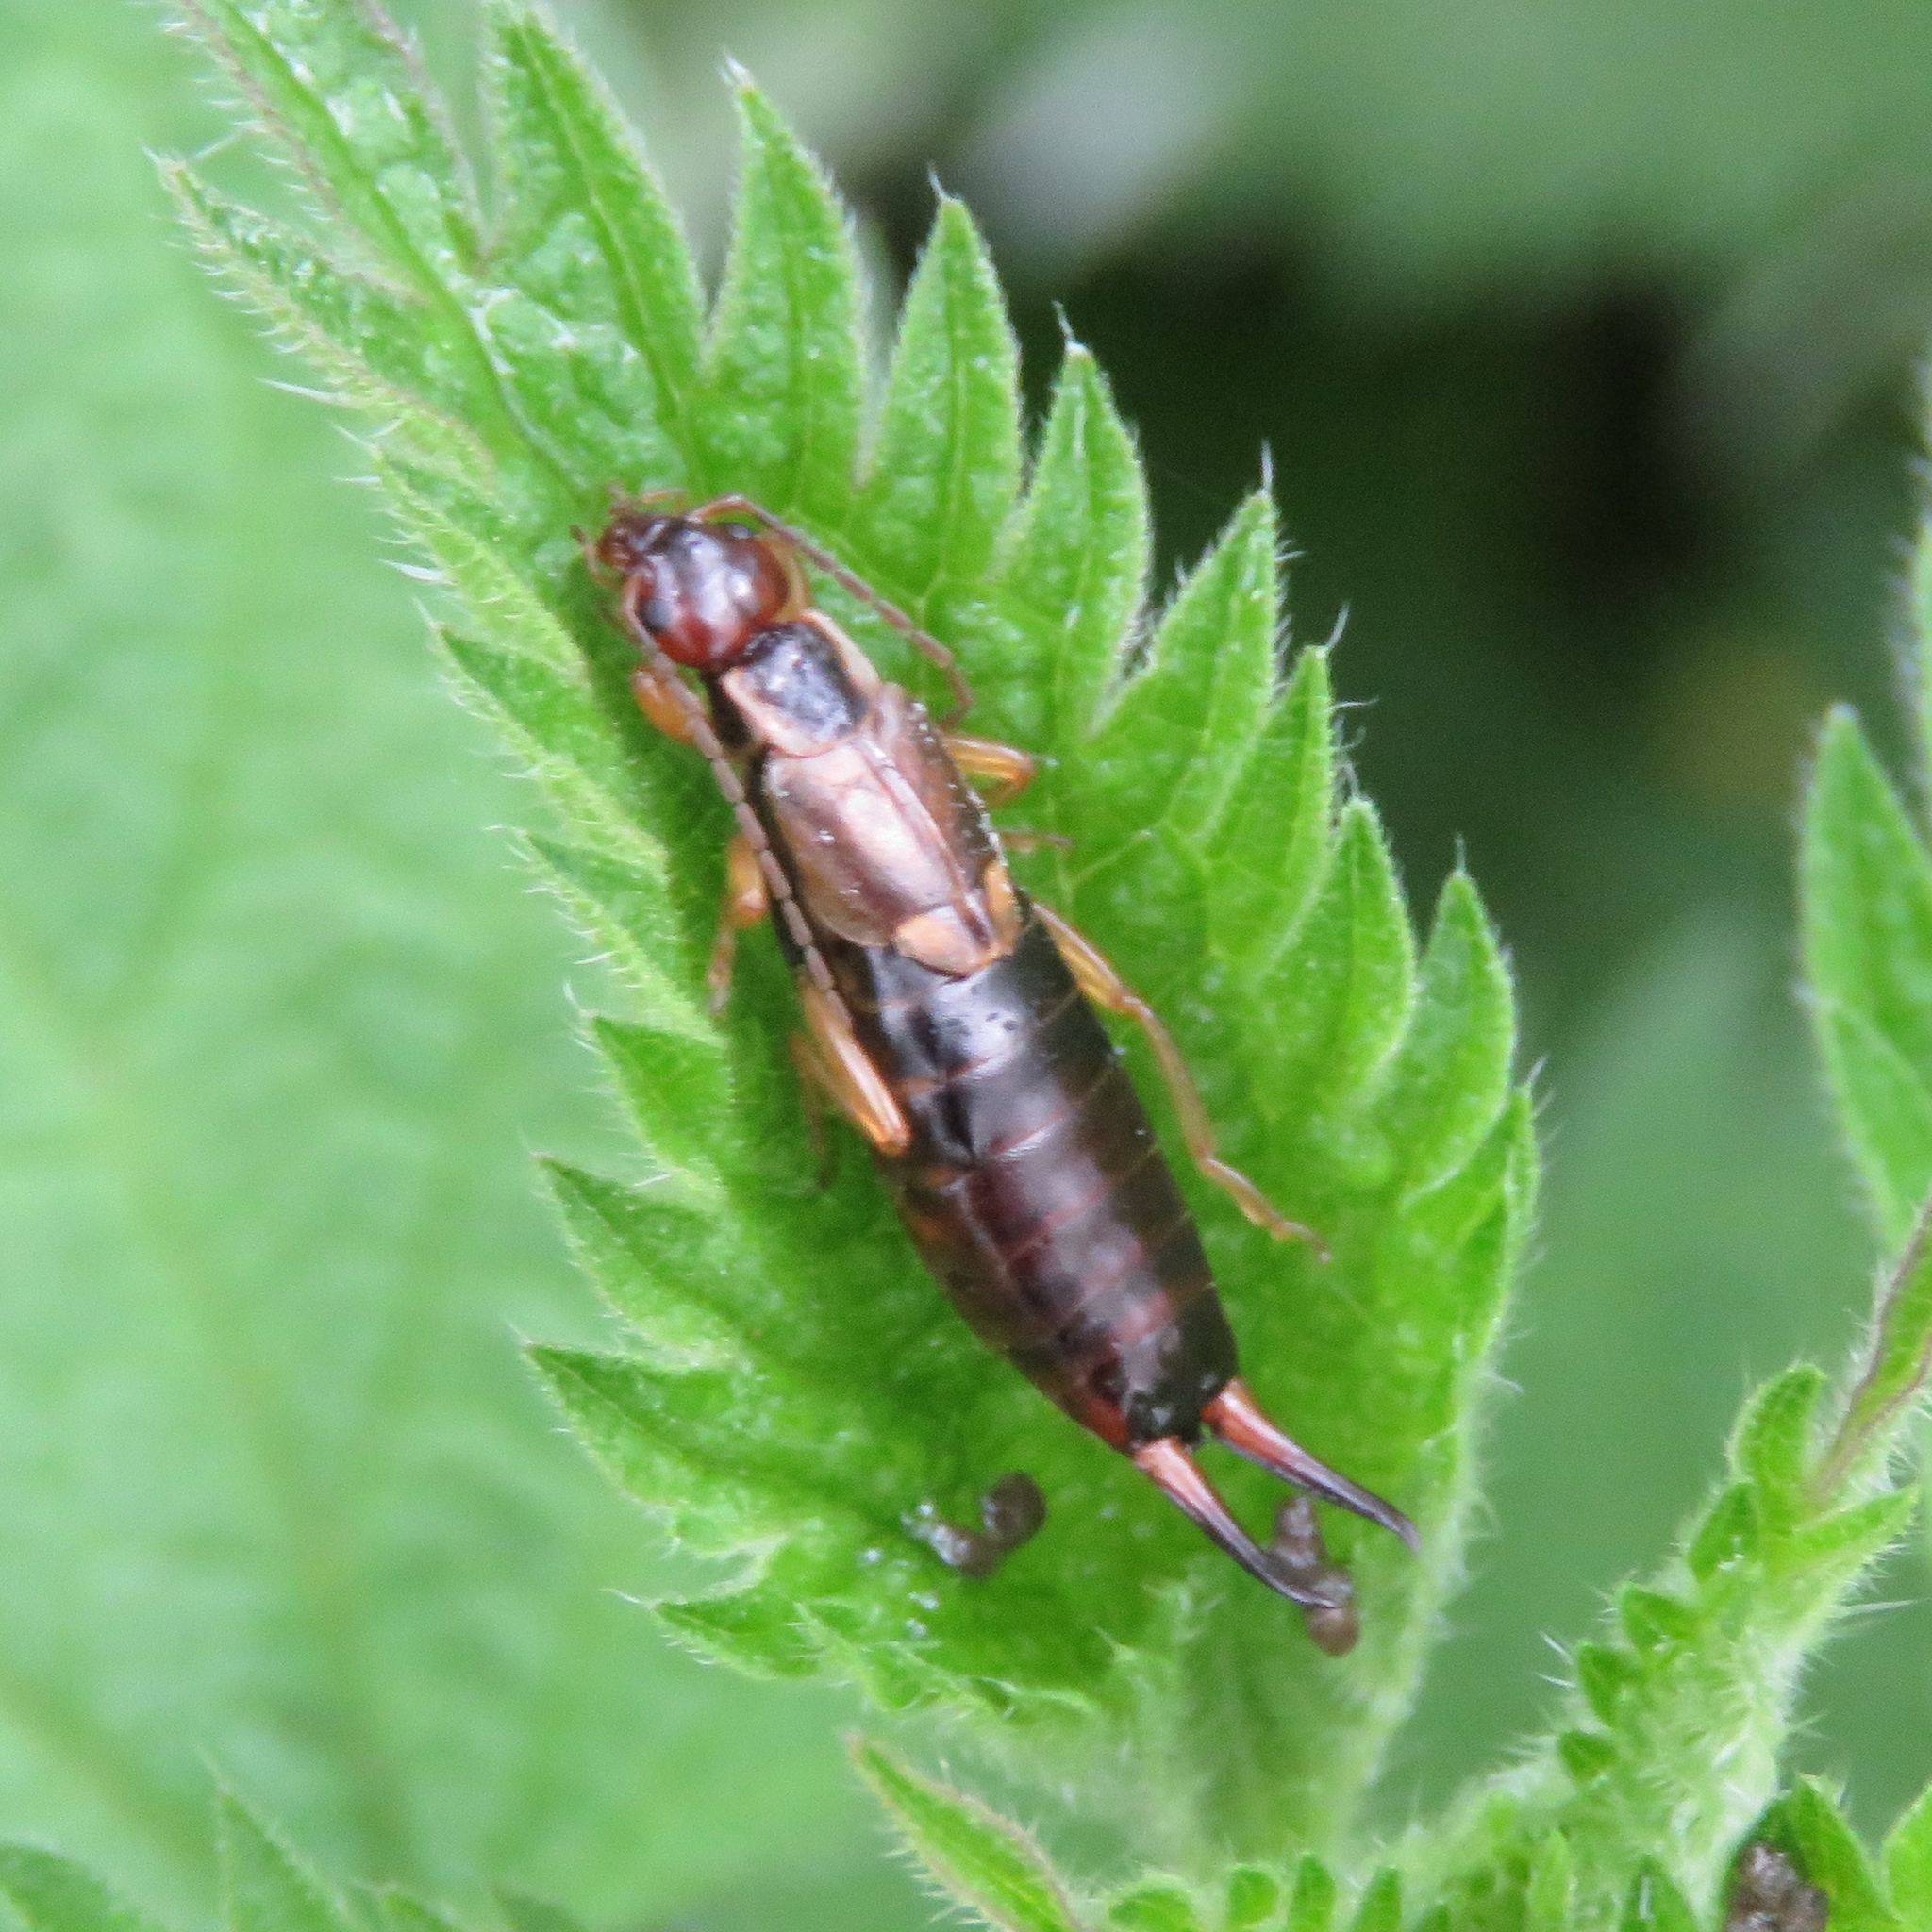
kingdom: Animalia
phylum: Arthropoda
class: Insecta
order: Dermaptera
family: Forficulidae
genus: Forficula
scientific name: Forficula
